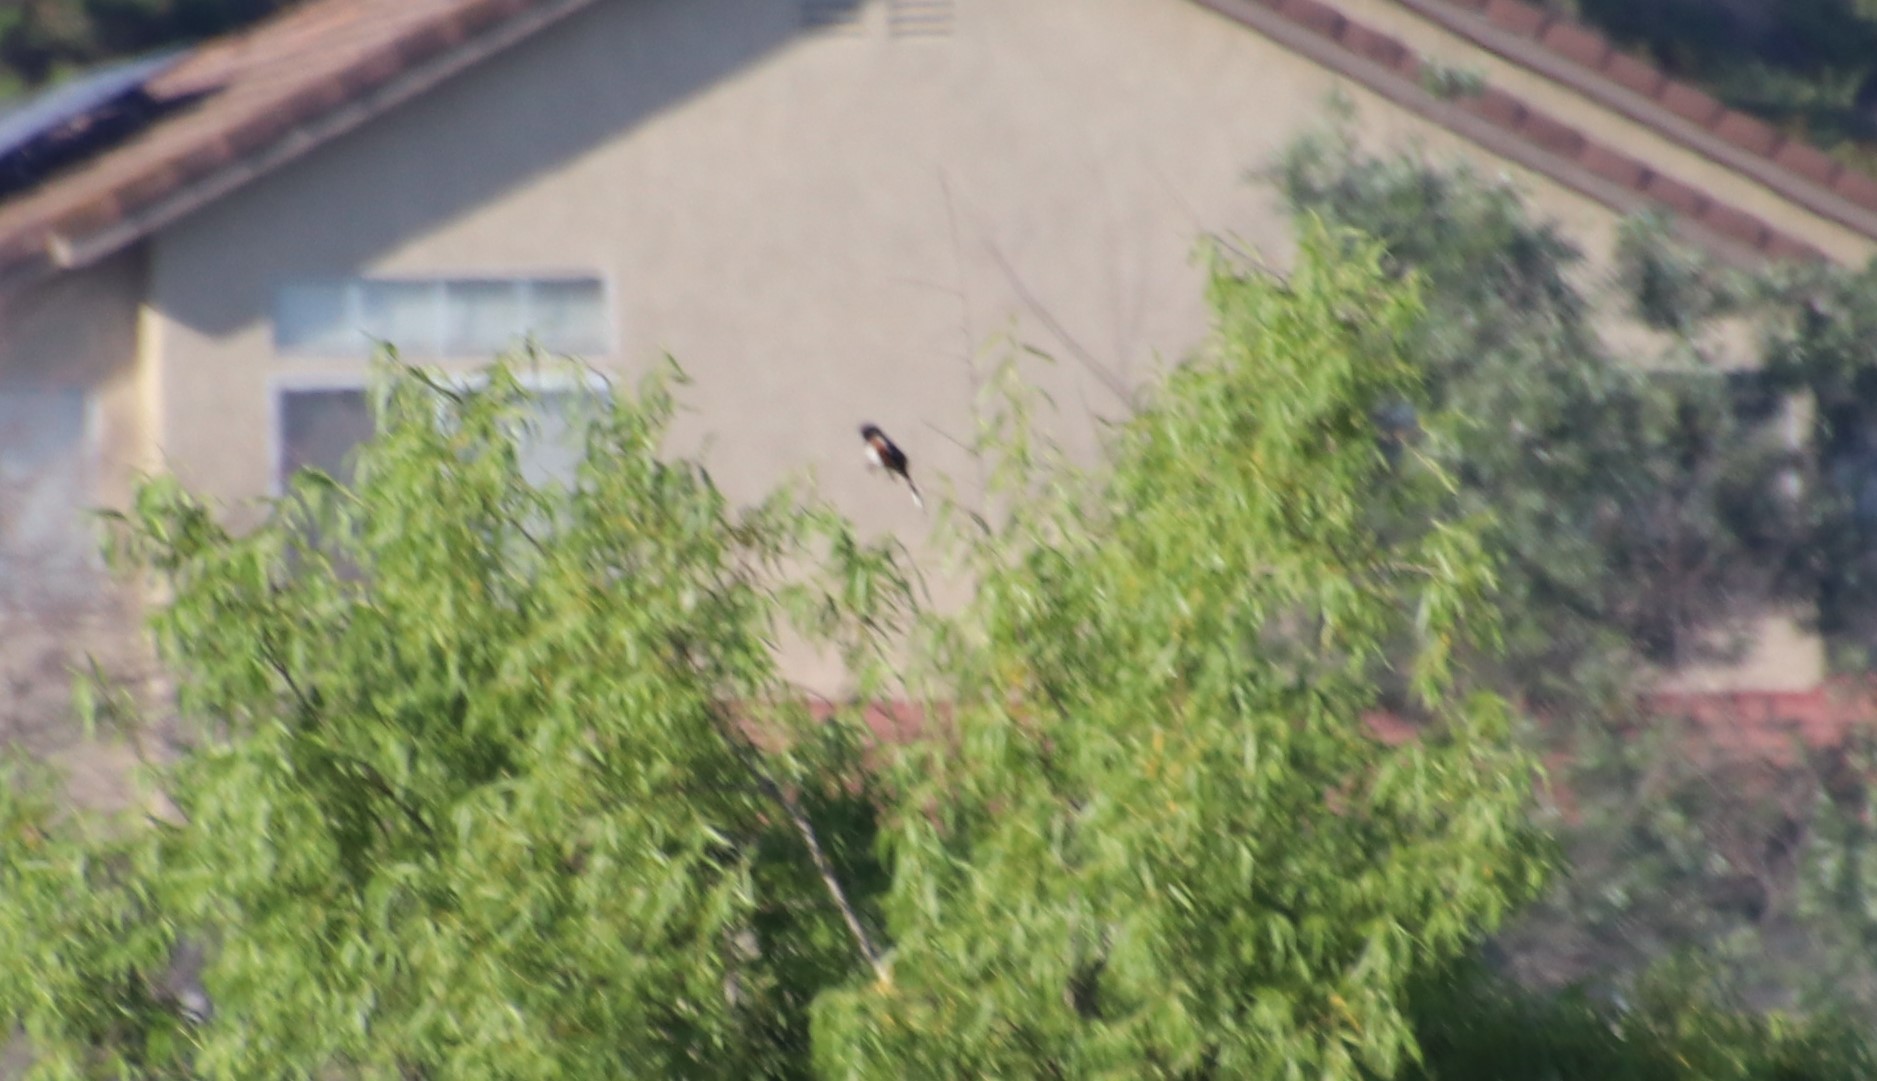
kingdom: Animalia
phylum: Chordata
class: Aves
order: Passeriformes
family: Passerellidae
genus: Pipilo
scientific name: Pipilo maculatus
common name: Spotted towhee
